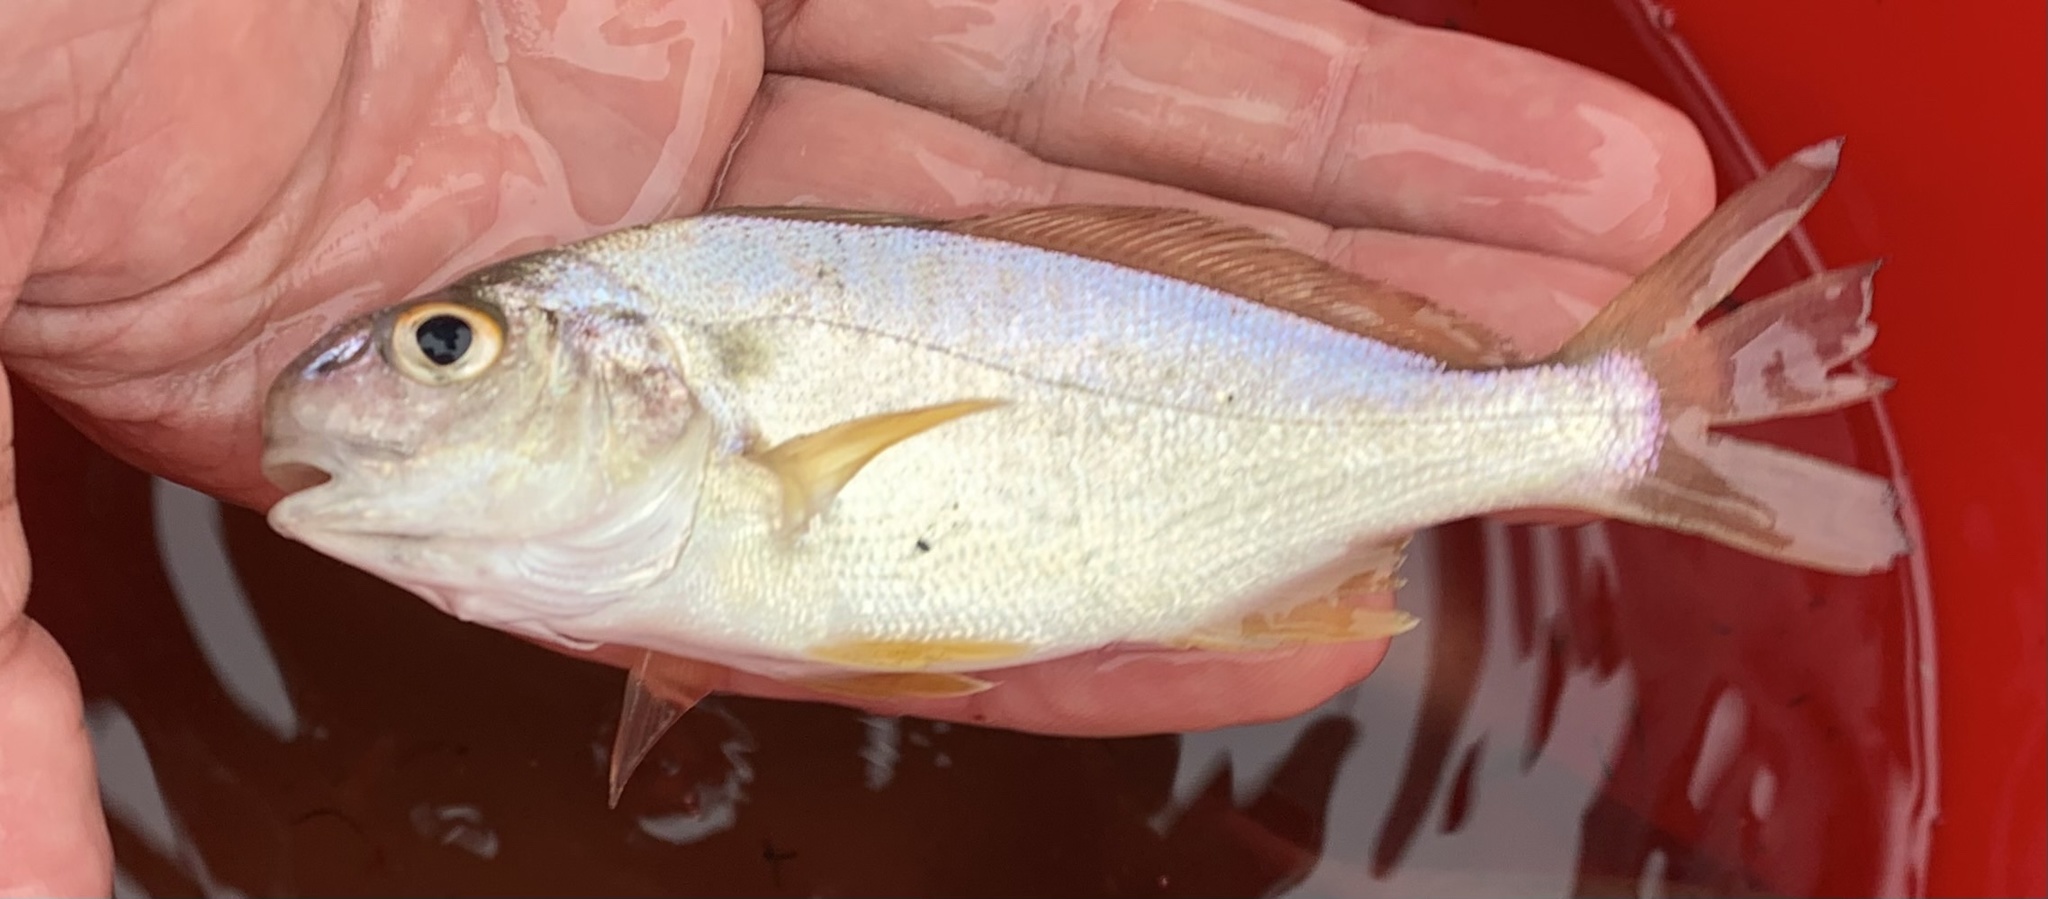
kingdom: Animalia
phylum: Chordata
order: Perciformes
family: Sciaenidae
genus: Leiostomus
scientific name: Leiostomus xanthurus
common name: Spot
